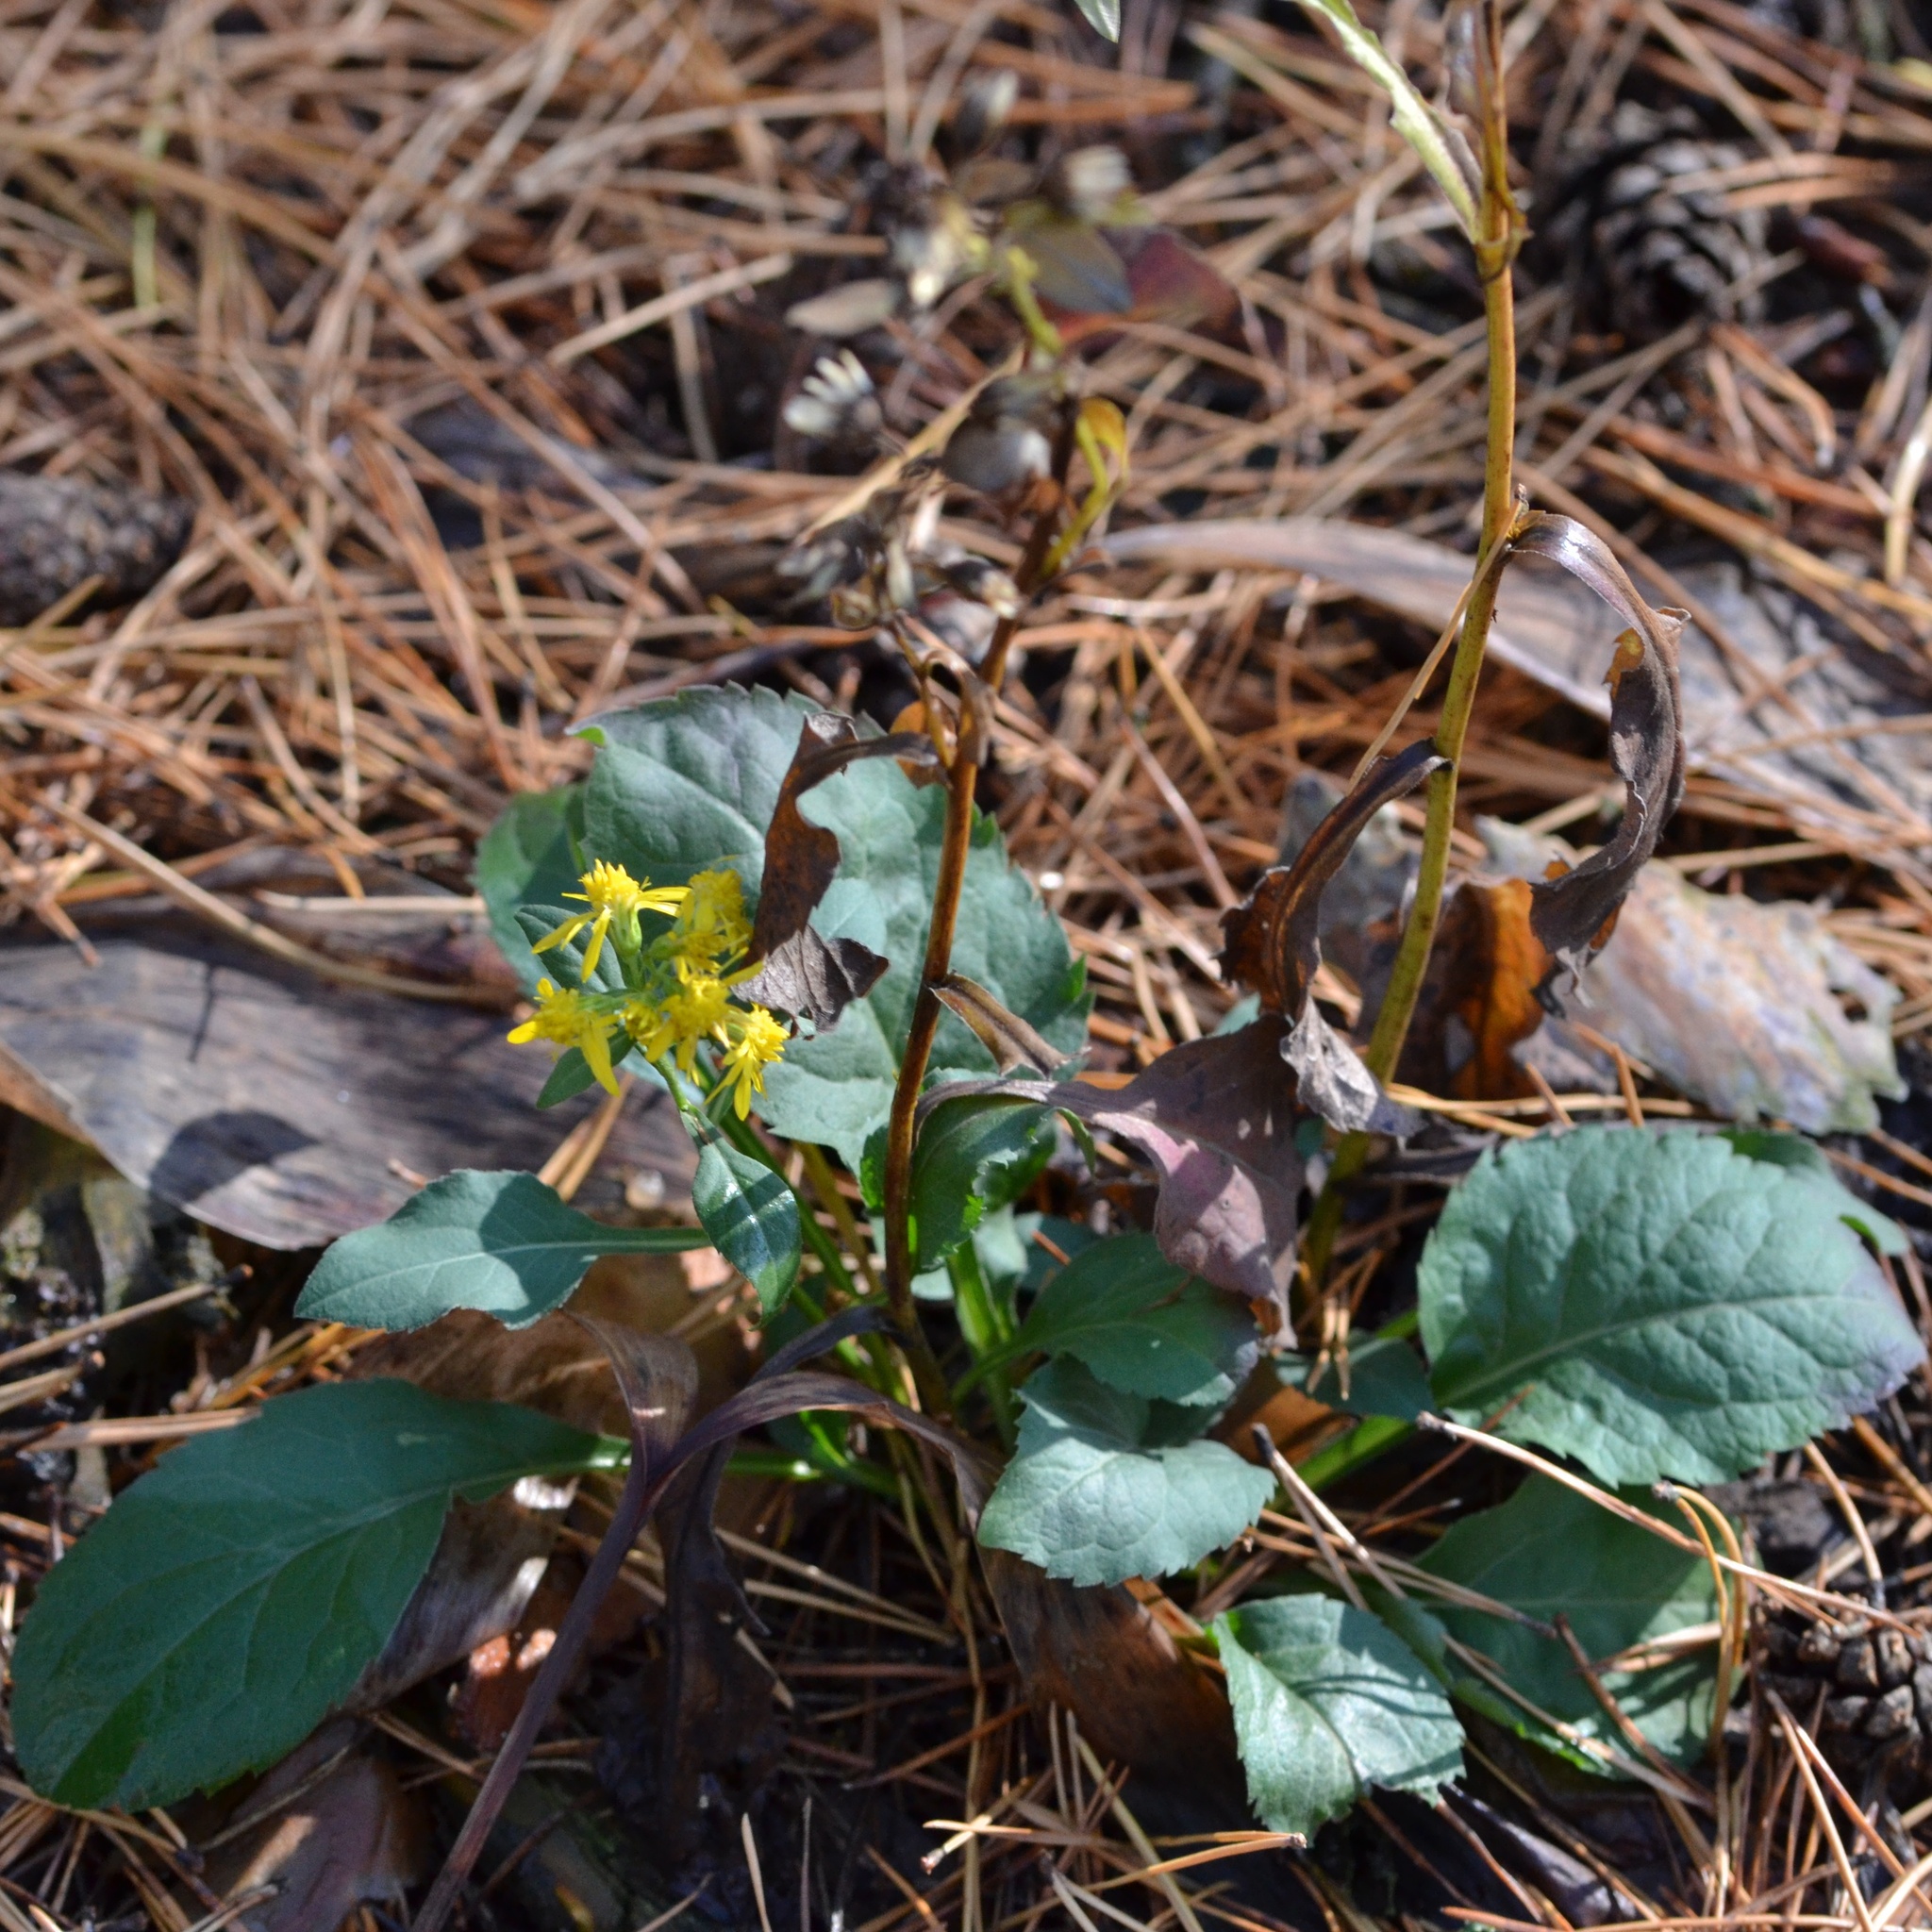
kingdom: Plantae
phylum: Tracheophyta
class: Magnoliopsida
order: Asterales
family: Asteraceae
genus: Solidago
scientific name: Solidago virgaurea
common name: Goldenrod
